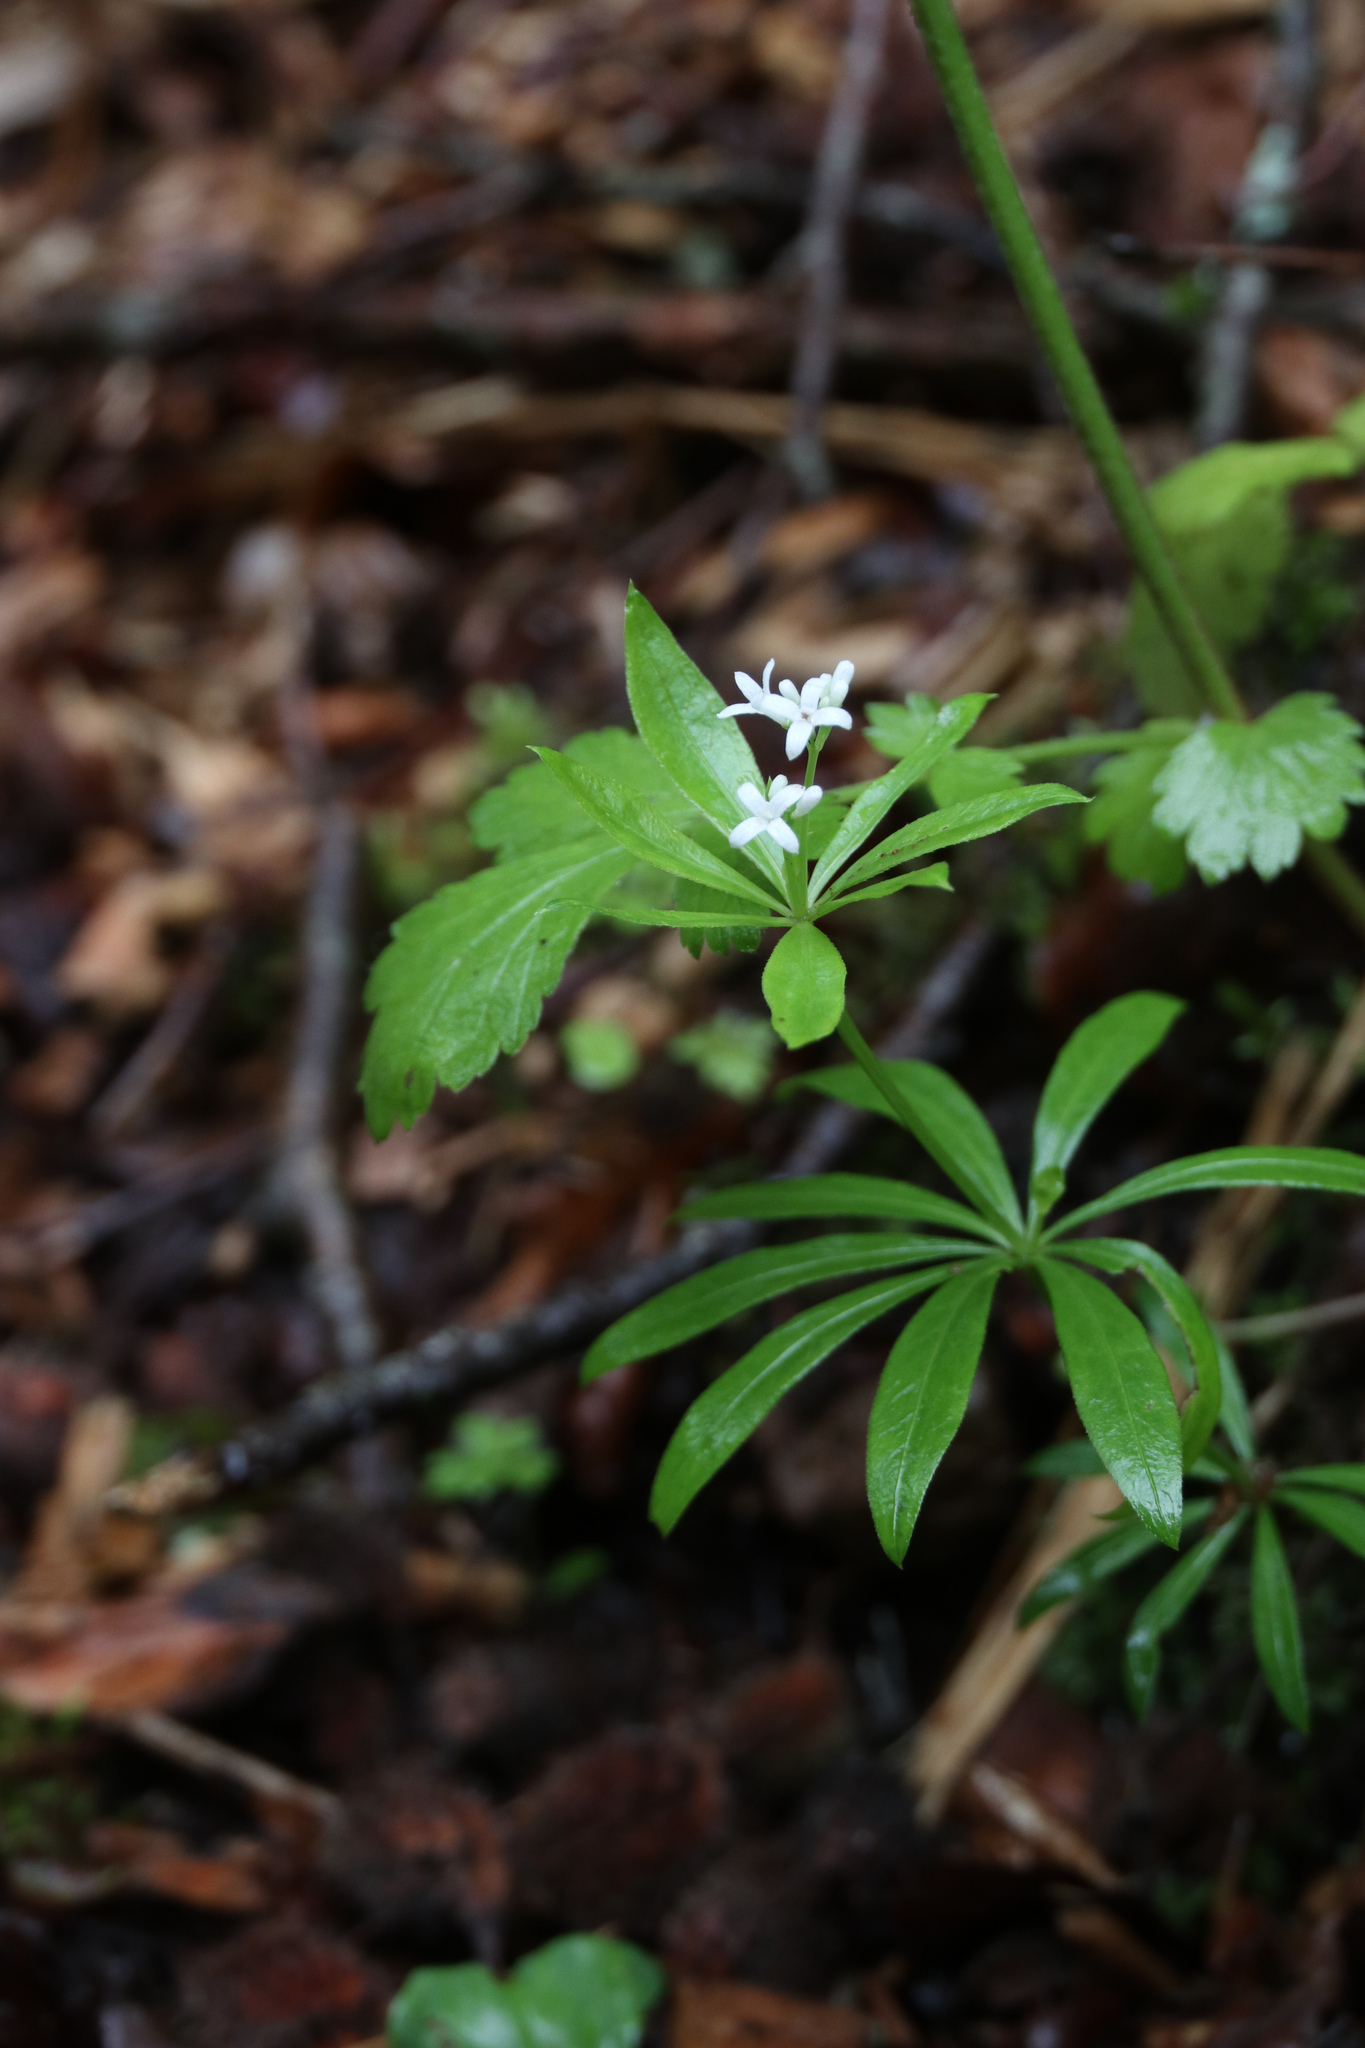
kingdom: Plantae
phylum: Tracheophyta
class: Magnoliopsida
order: Gentianales
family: Rubiaceae
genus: Galium
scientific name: Galium odoratum
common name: Sweet woodruff
